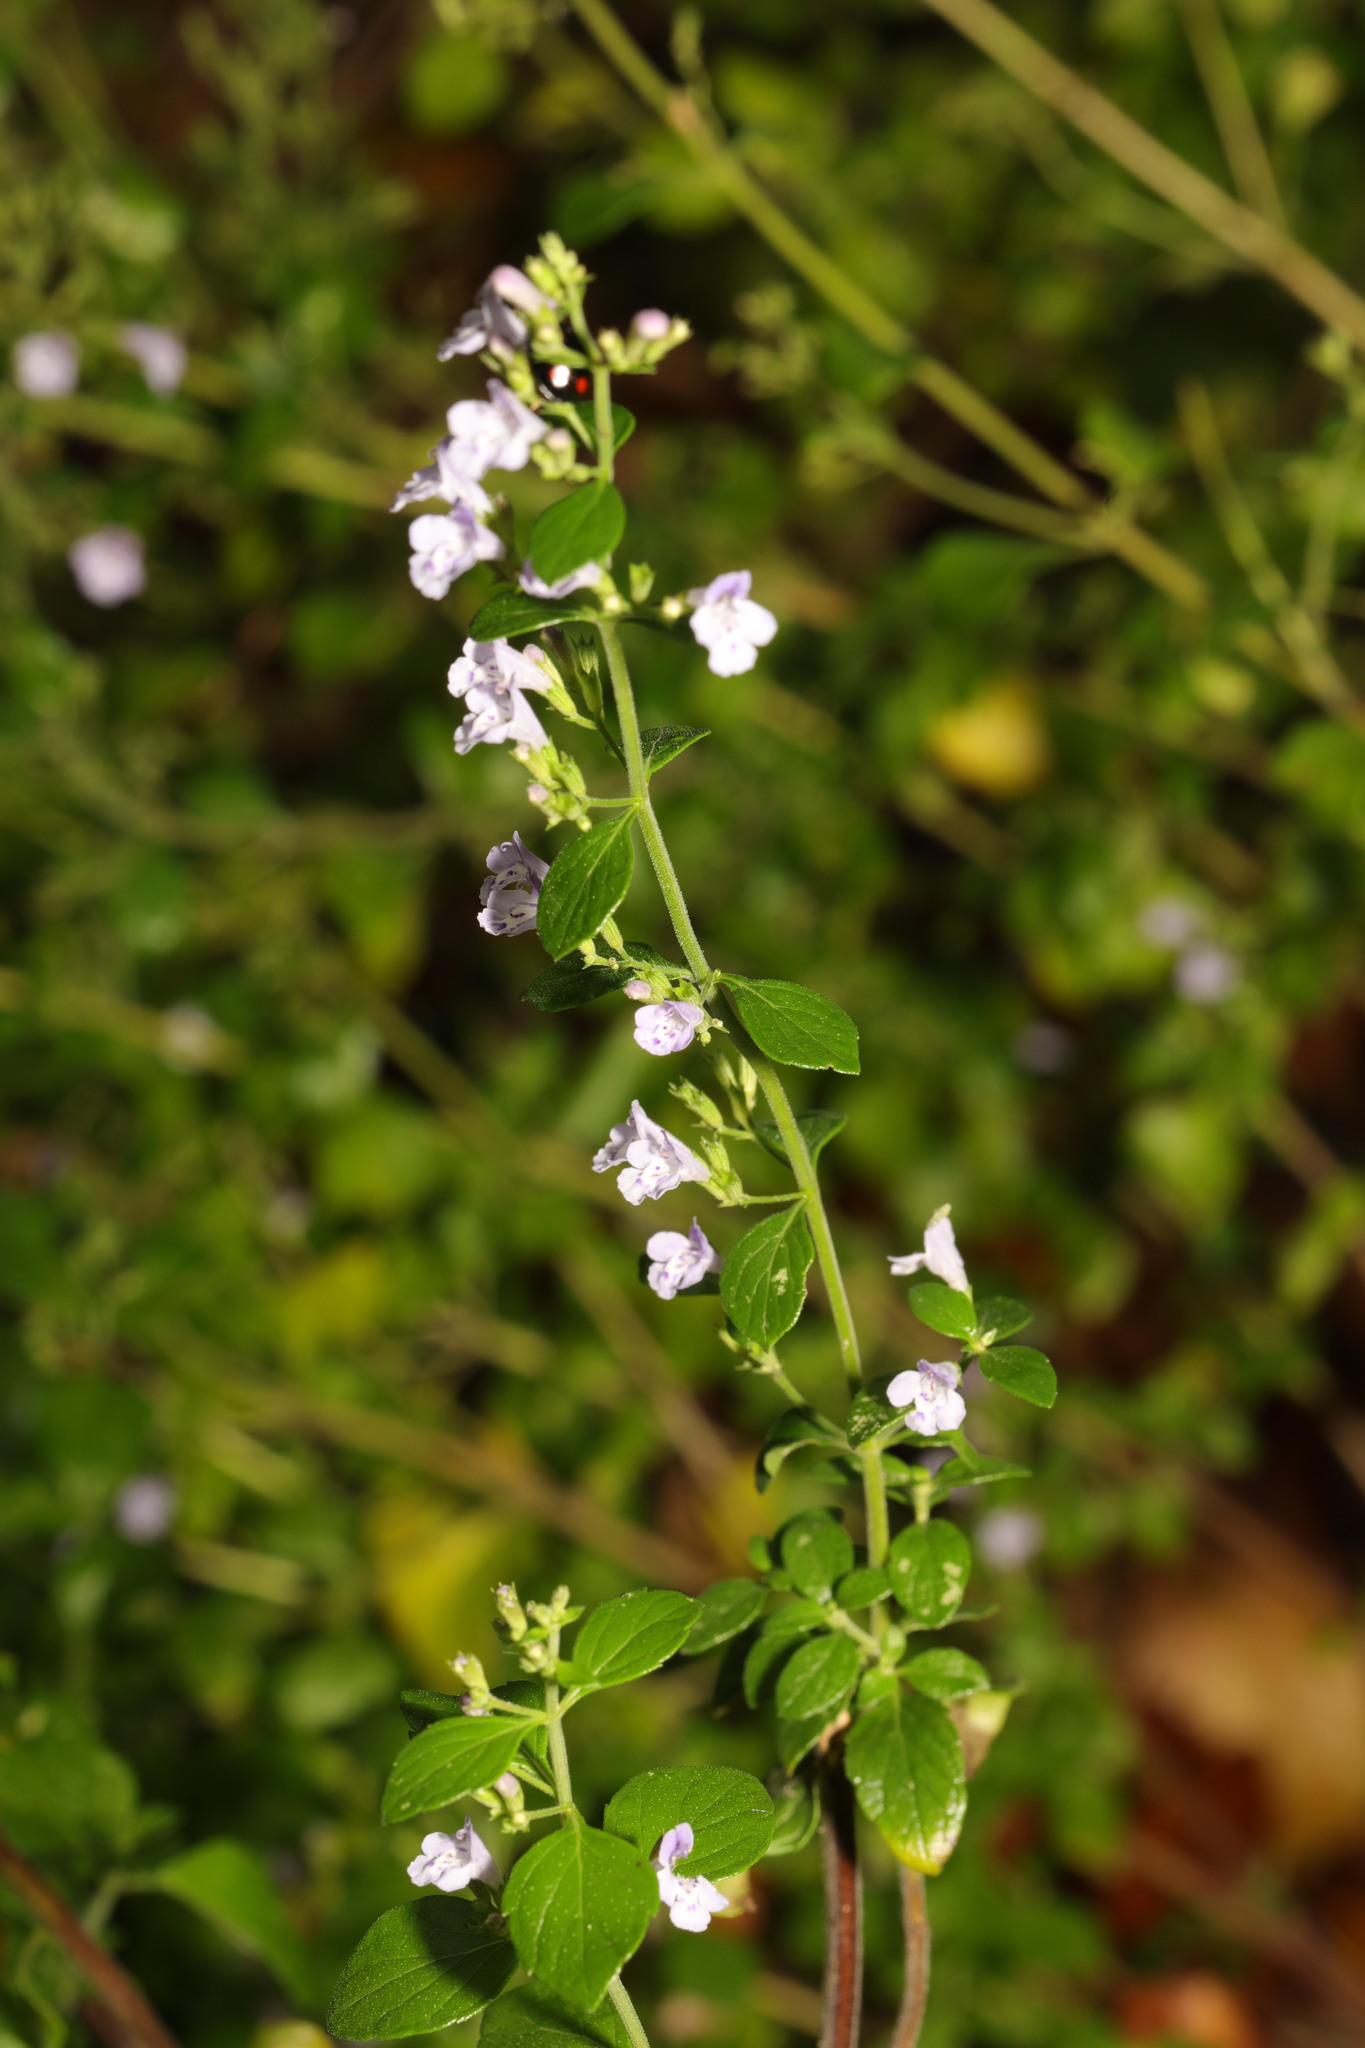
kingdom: Plantae
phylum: Tracheophyta
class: Magnoliopsida
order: Lamiales
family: Lamiaceae
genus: Clinopodium
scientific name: Clinopodium nepeta
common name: Lesser calamint
